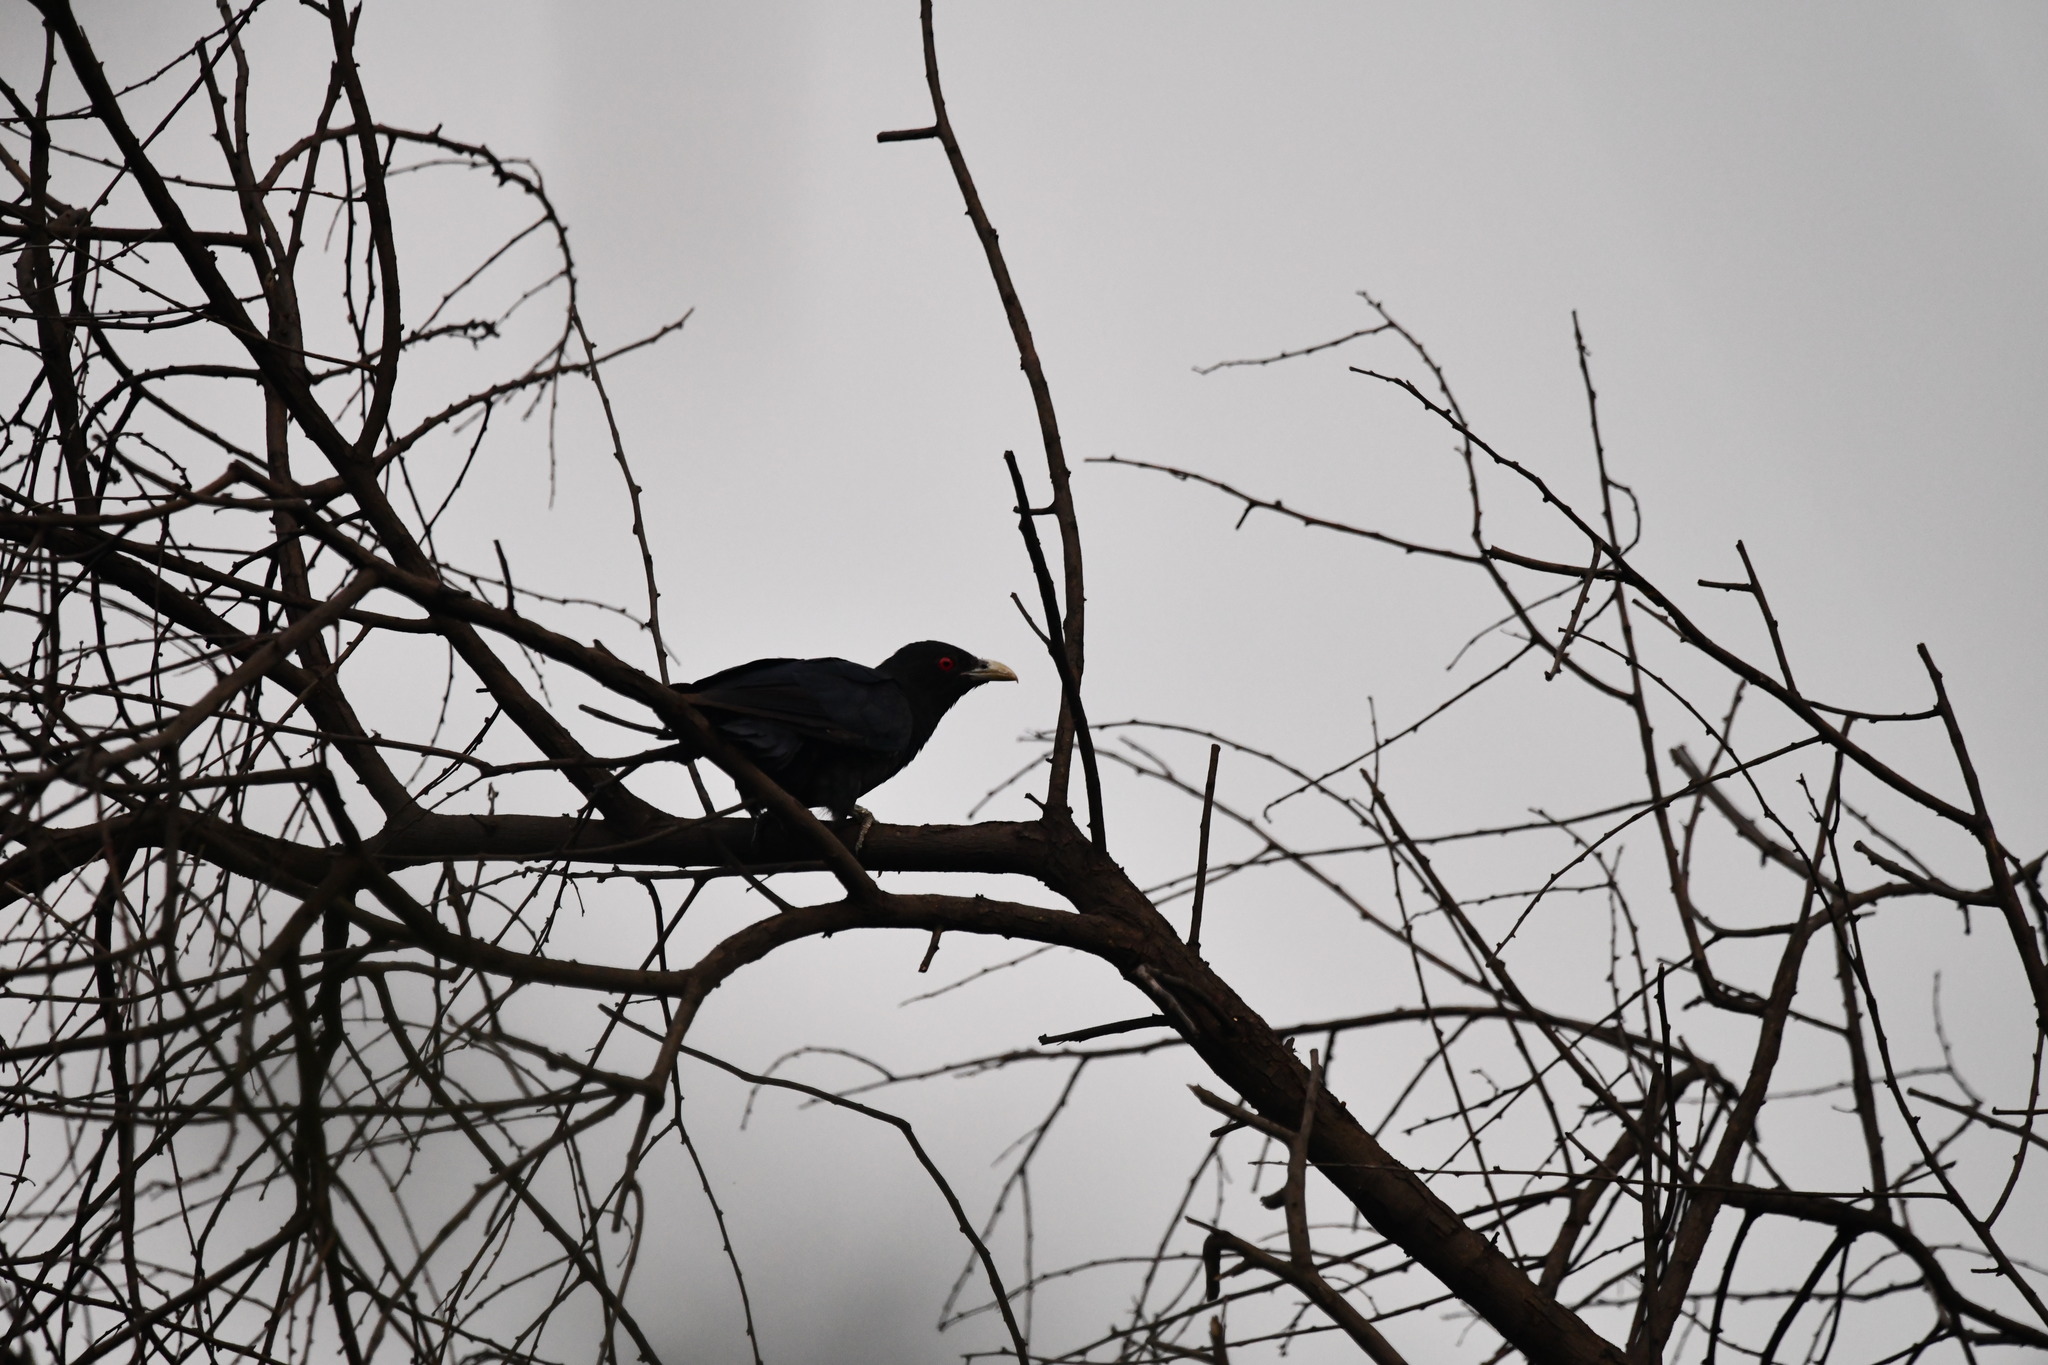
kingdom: Animalia
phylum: Chordata
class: Aves
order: Cuculiformes
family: Cuculidae
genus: Eudynamys
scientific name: Eudynamys scolopaceus
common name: Asian koel
